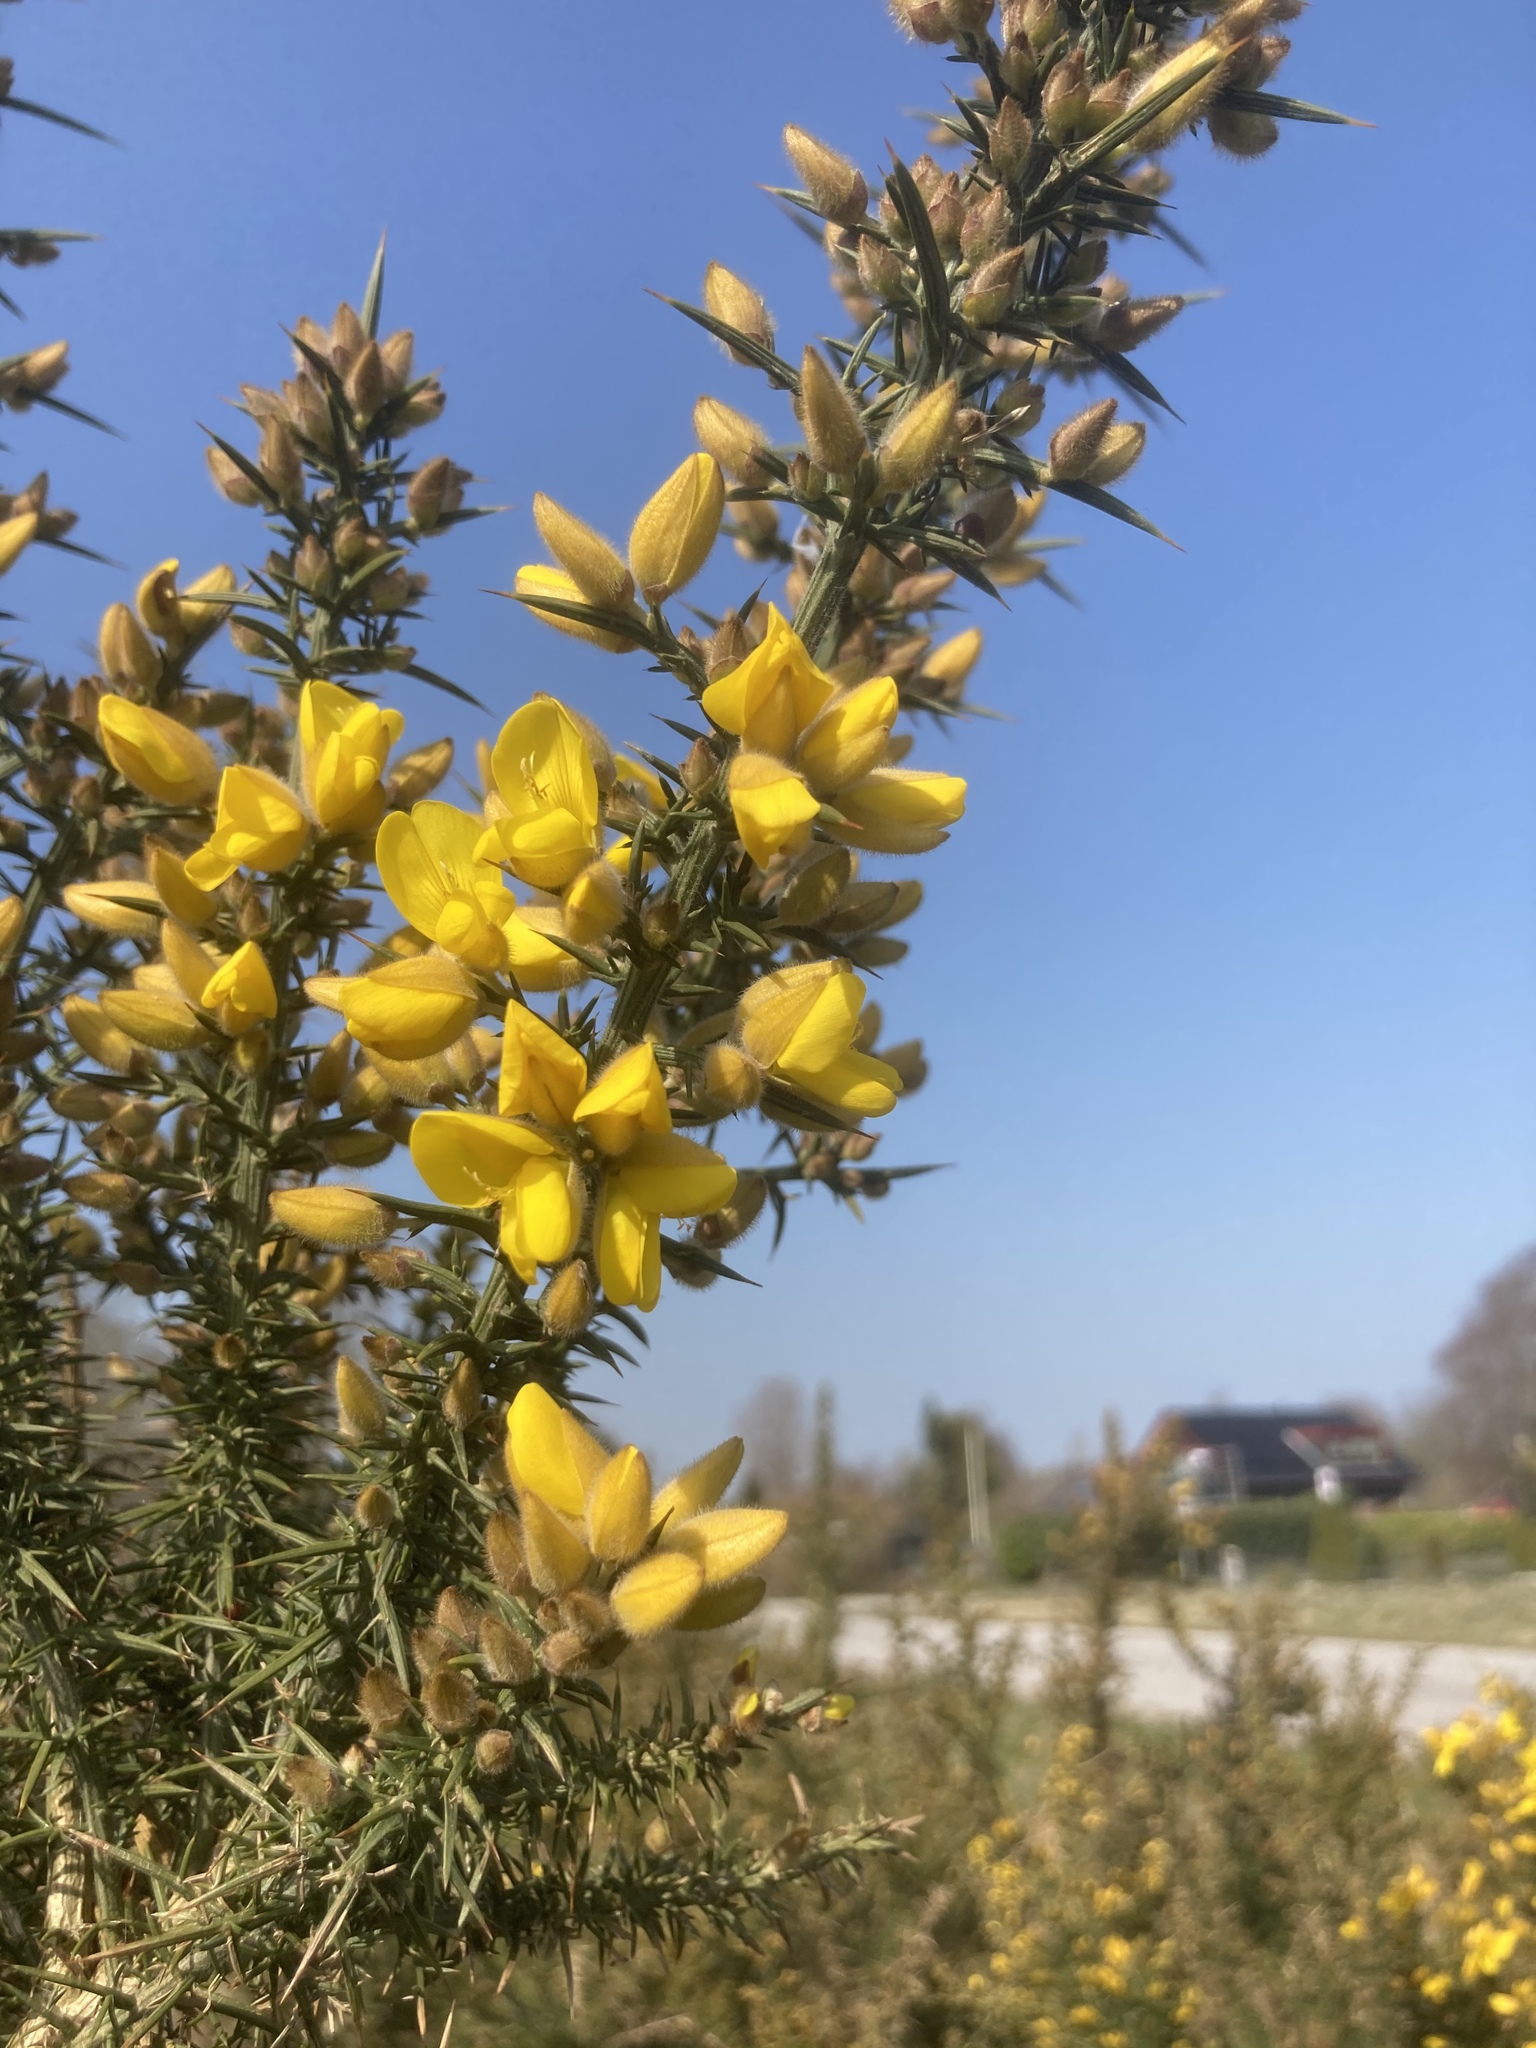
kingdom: Plantae
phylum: Tracheophyta
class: Magnoliopsida
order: Fabales
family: Fabaceae
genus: Ulex
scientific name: Ulex europaeus
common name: Common gorse
